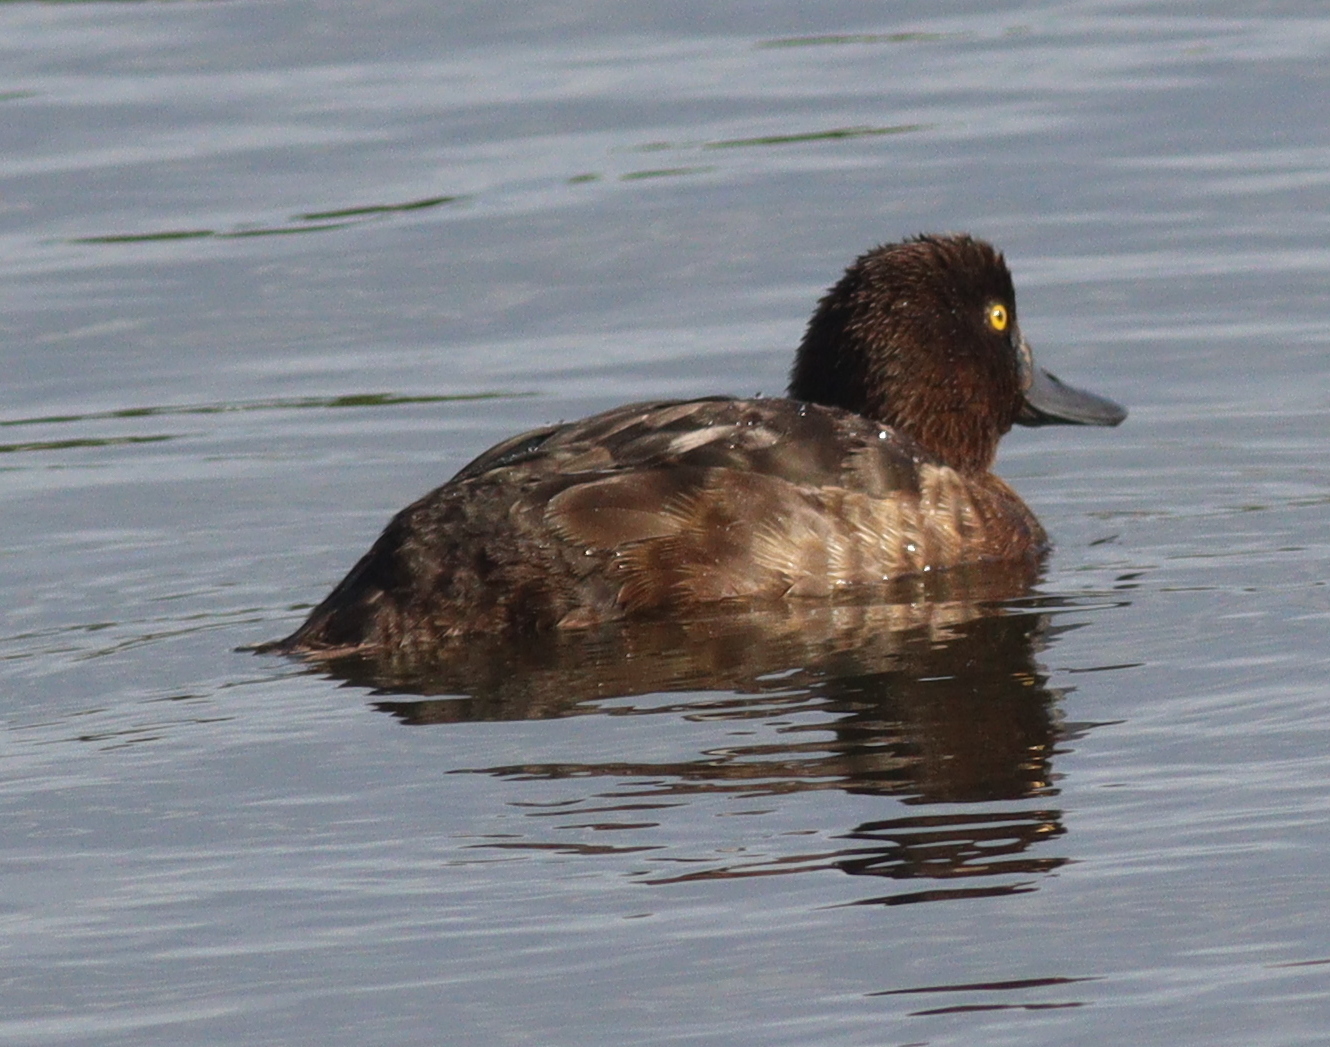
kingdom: Animalia
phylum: Chordata
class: Aves
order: Anseriformes
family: Anatidae
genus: Aythya
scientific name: Aythya fuligula
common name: Tufted duck
